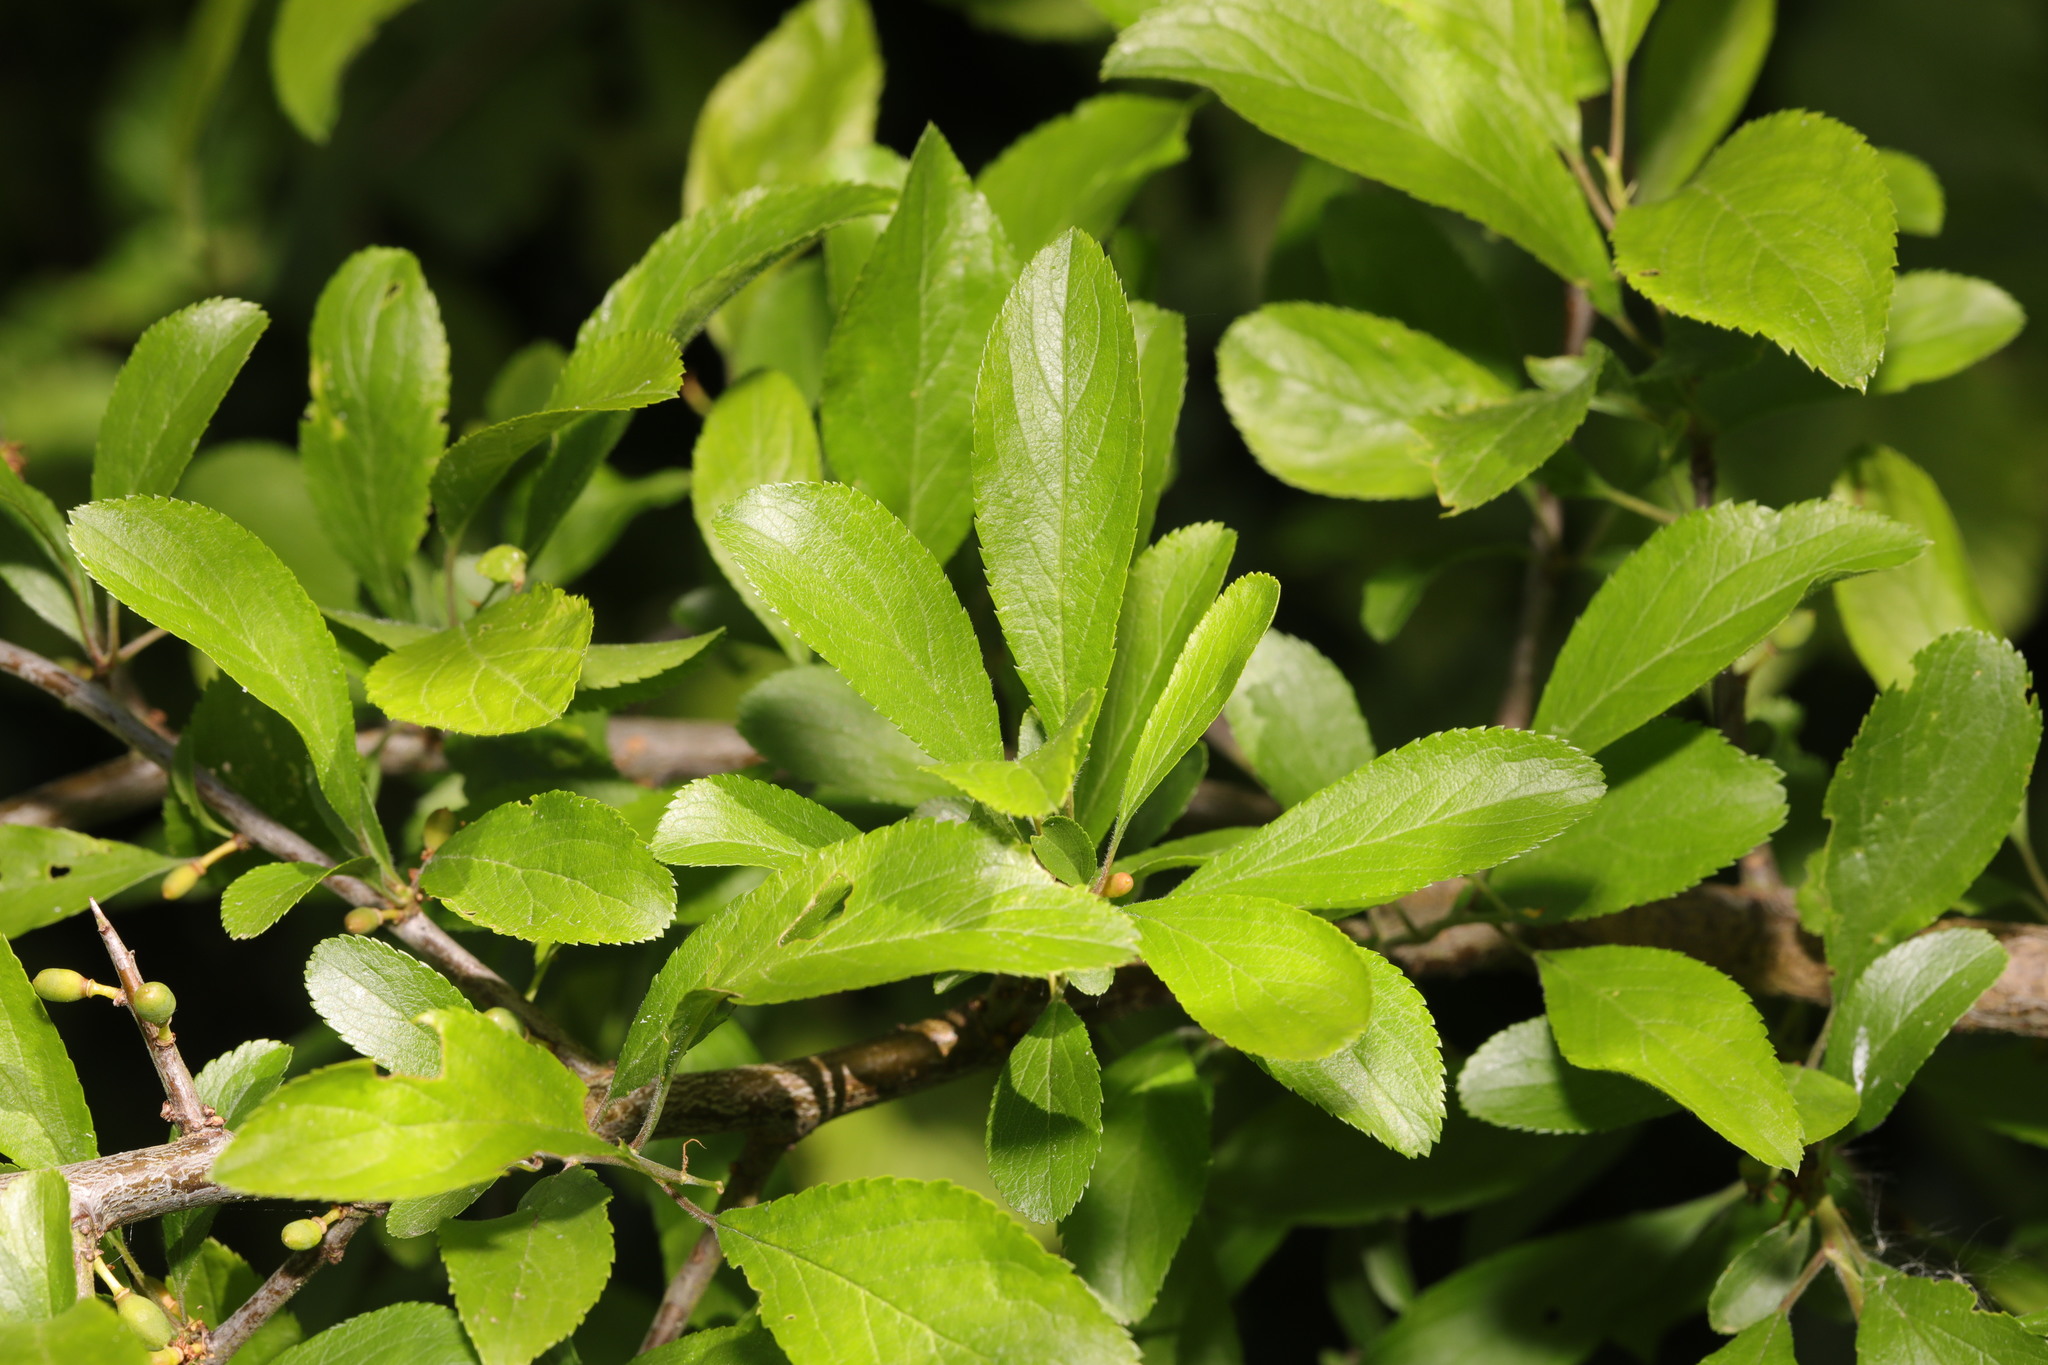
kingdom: Plantae
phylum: Tracheophyta
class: Magnoliopsida
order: Rosales
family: Rosaceae
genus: Prunus
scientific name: Prunus spinosa
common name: Blackthorn
